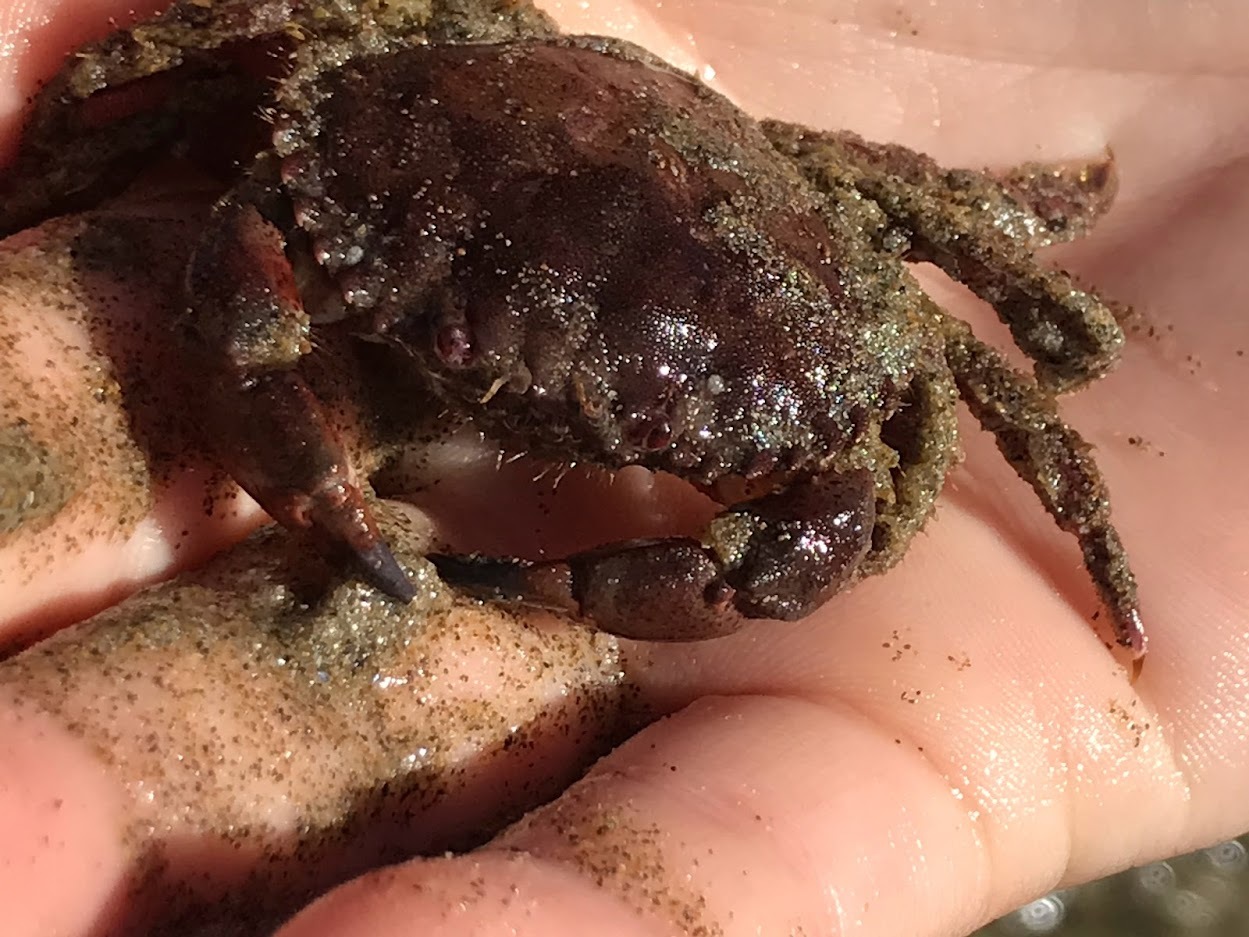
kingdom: Animalia
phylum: Arthropoda
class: Malacostraca
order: Decapoda
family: Cancridae
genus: Romaleon
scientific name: Romaleon antennarium
